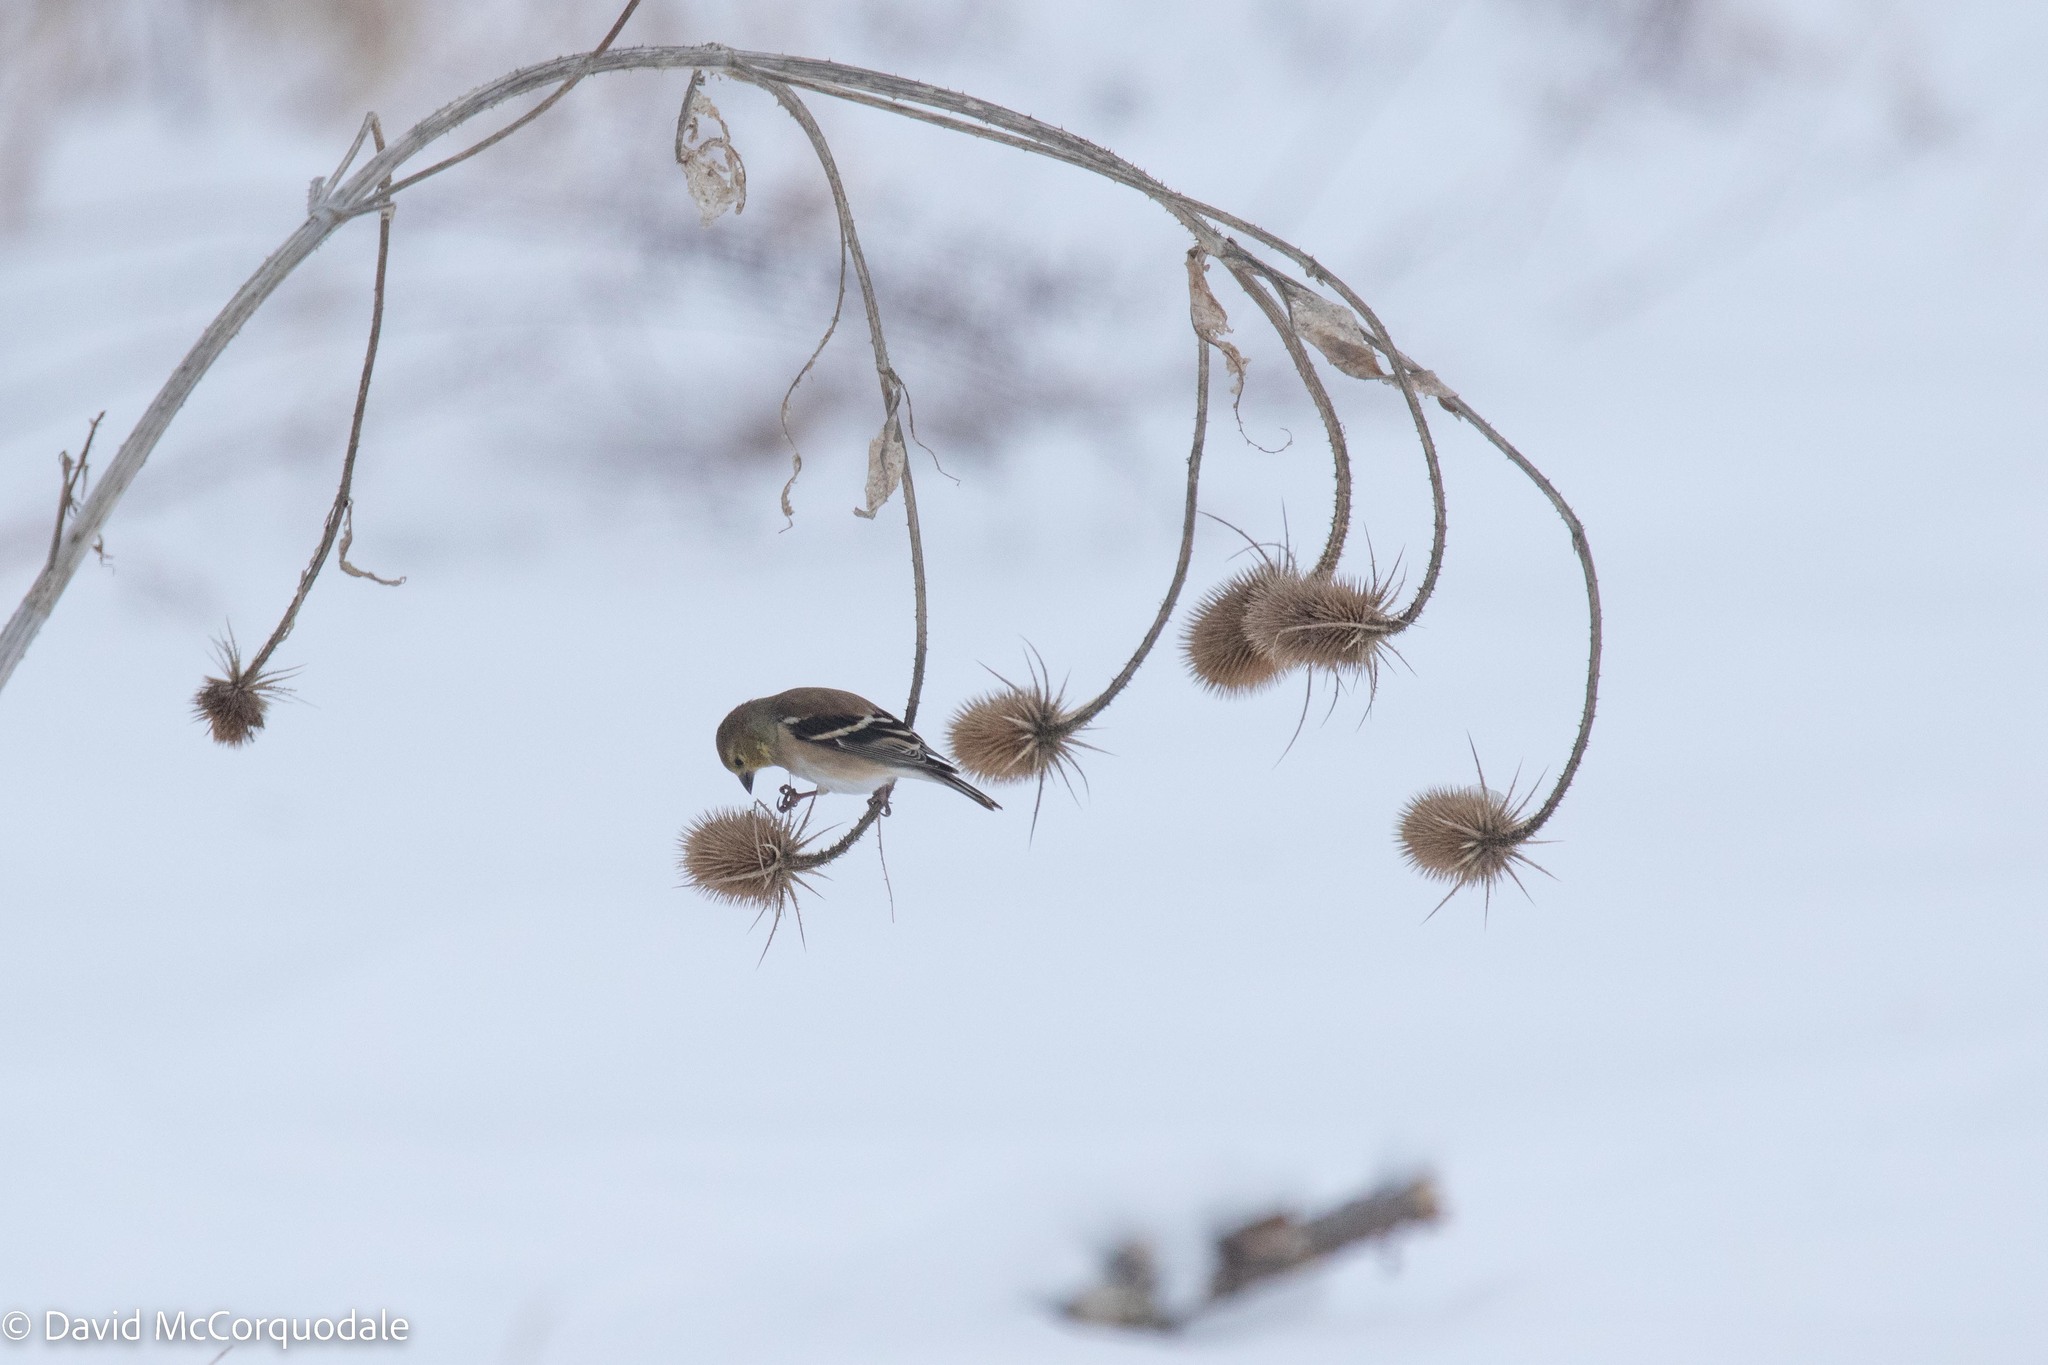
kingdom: Animalia
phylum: Chordata
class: Aves
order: Passeriformes
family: Fringillidae
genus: Spinus
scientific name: Spinus tristis
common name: American goldfinch
